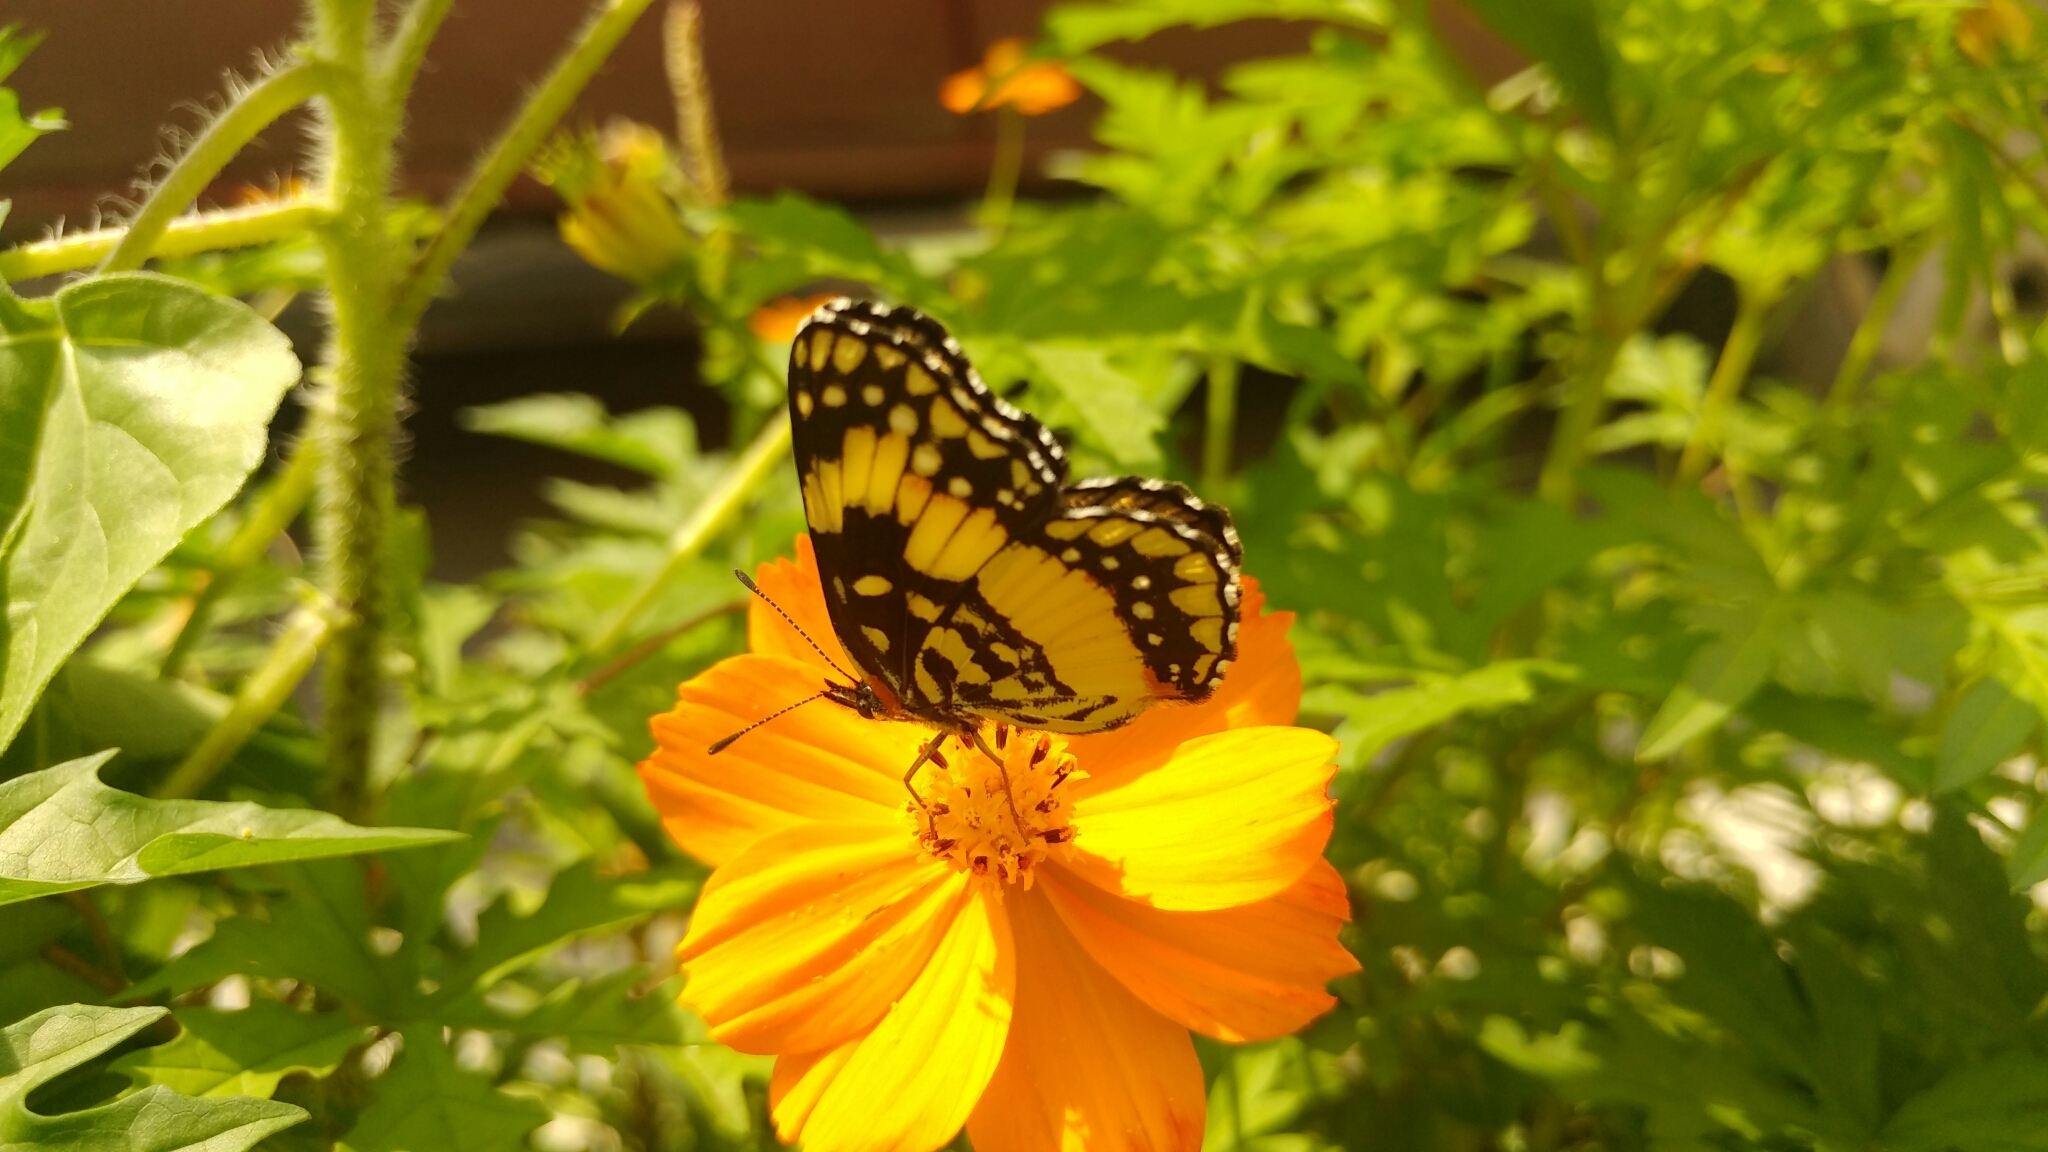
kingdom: Animalia
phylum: Arthropoda
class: Insecta
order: Lepidoptera
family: Nymphalidae
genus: Chlosyne
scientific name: Chlosyne lacinia
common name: Bordered patch
